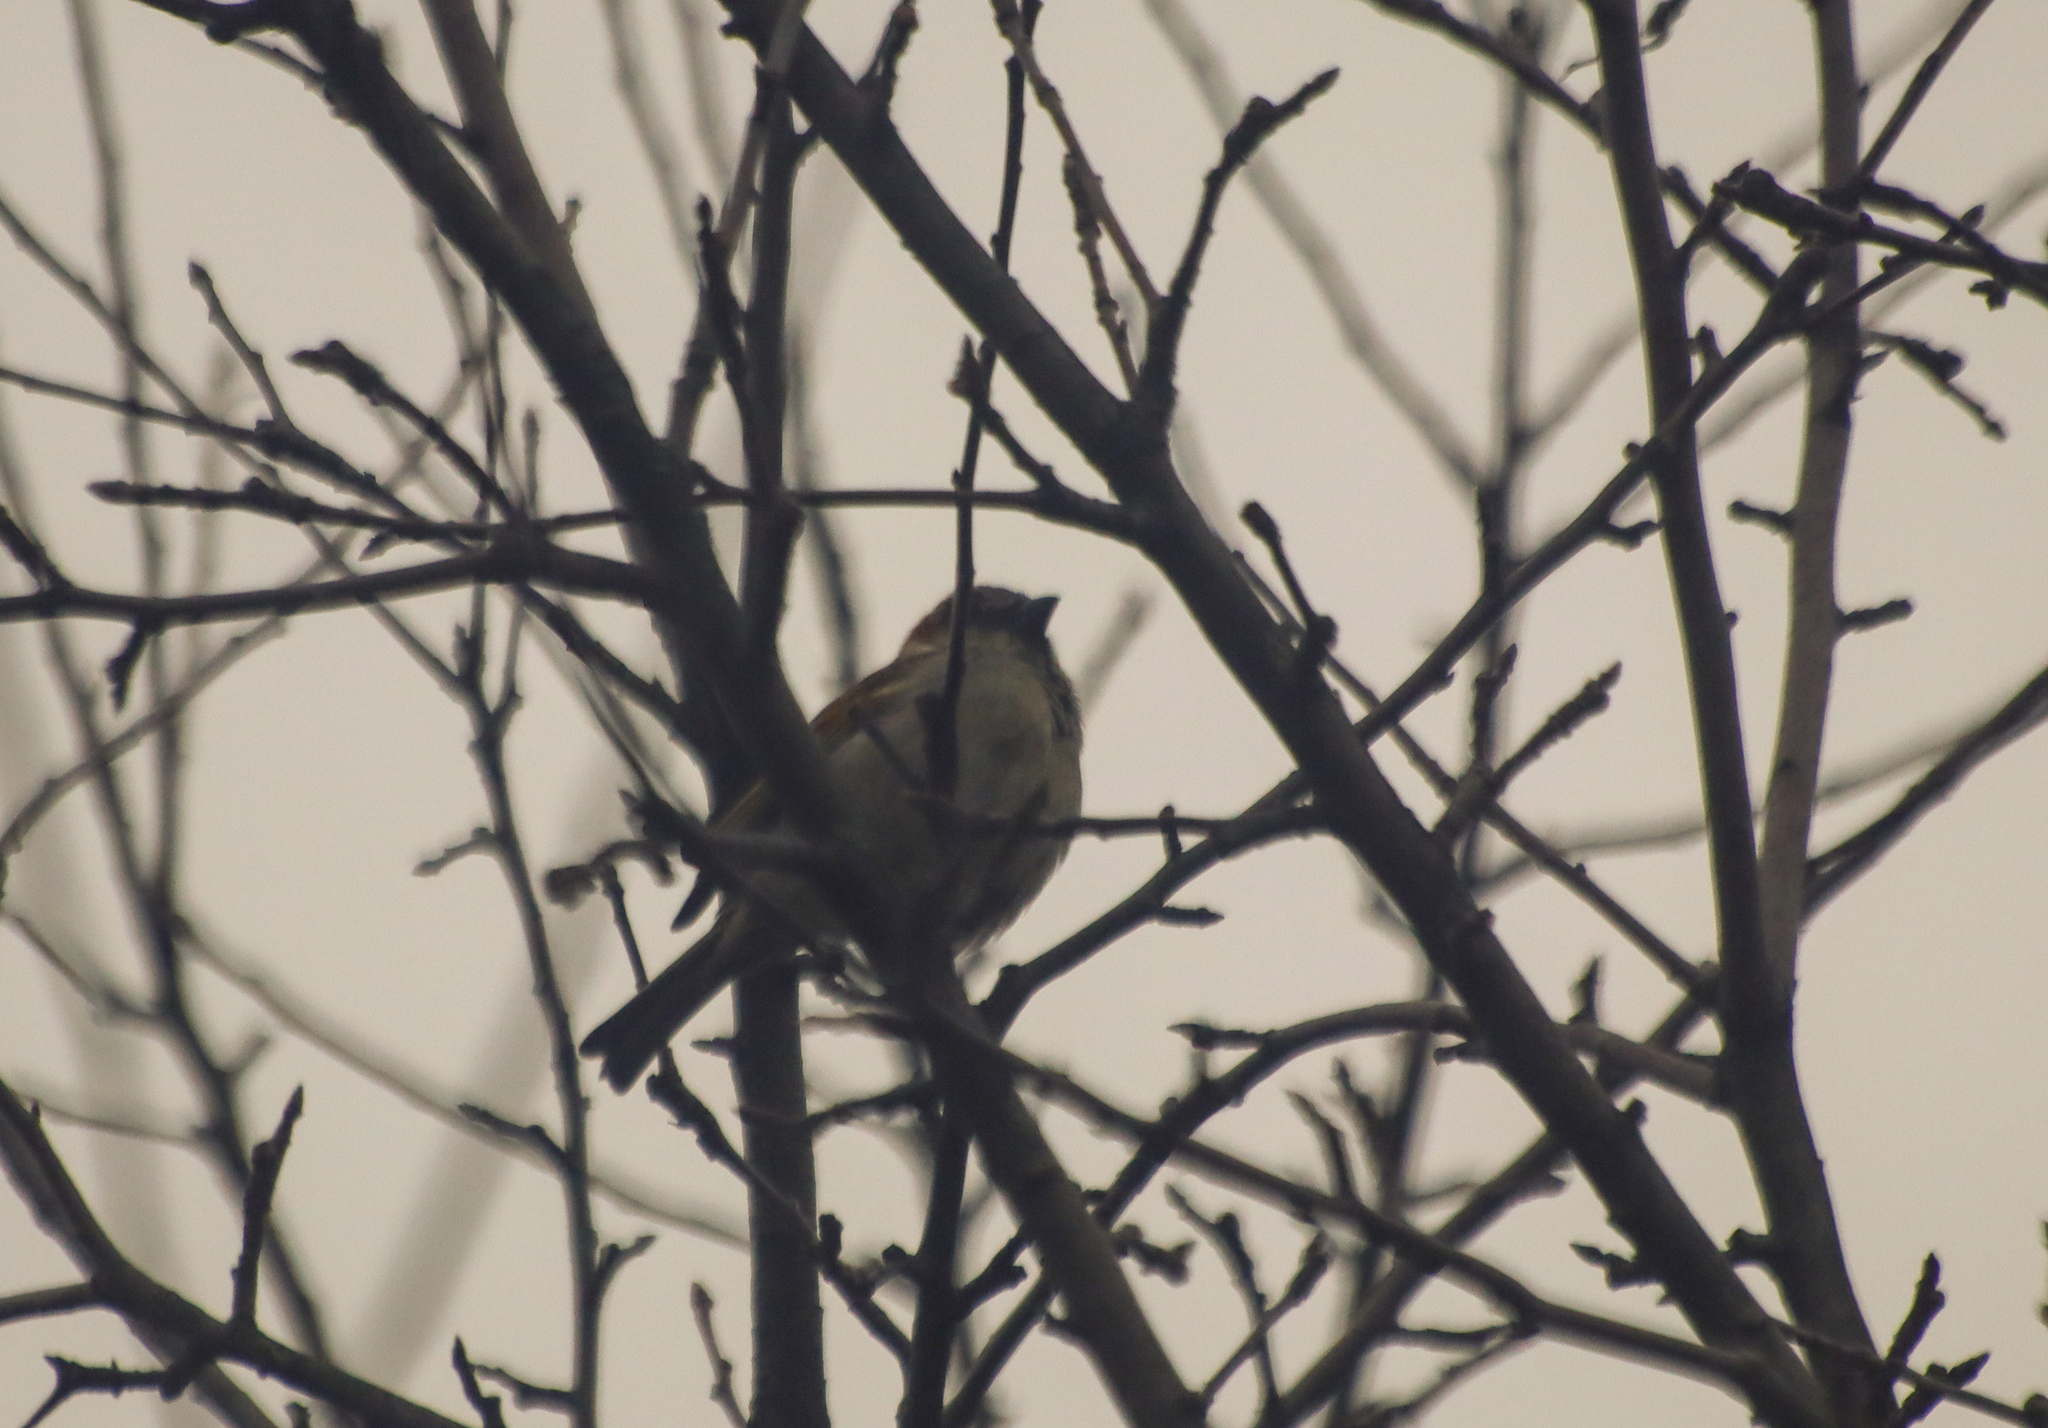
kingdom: Animalia
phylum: Chordata
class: Aves
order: Passeriformes
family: Passeridae
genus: Passer
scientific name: Passer domesticus
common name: House sparrow
